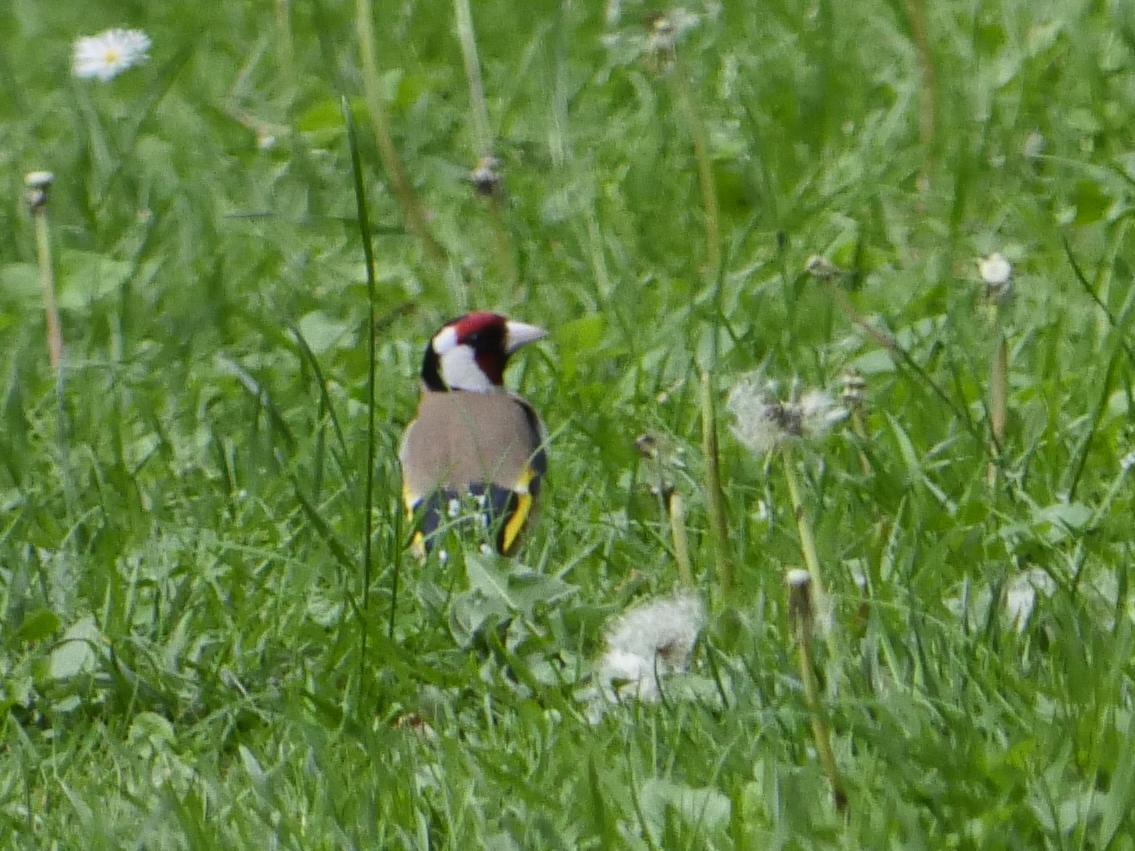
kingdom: Animalia
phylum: Chordata
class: Aves
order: Passeriformes
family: Fringillidae
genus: Carduelis
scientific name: Carduelis carduelis
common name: European goldfinch
